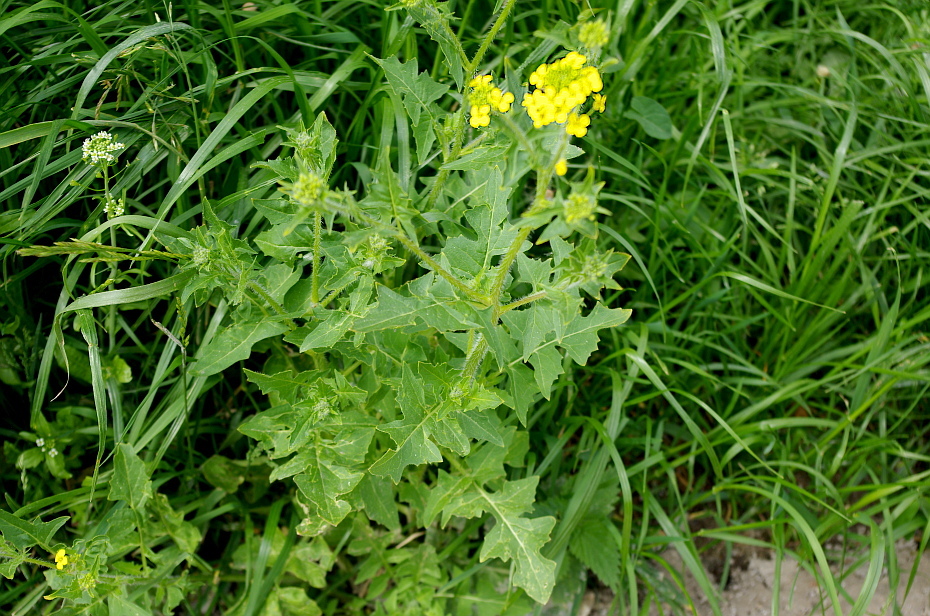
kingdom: Plantae
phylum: Tracheophyta
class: Magnoliopsida
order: Brassicales
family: Brassicaceae
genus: Sisymbrium
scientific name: Sisymbrium loeselii
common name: False london-rocket
